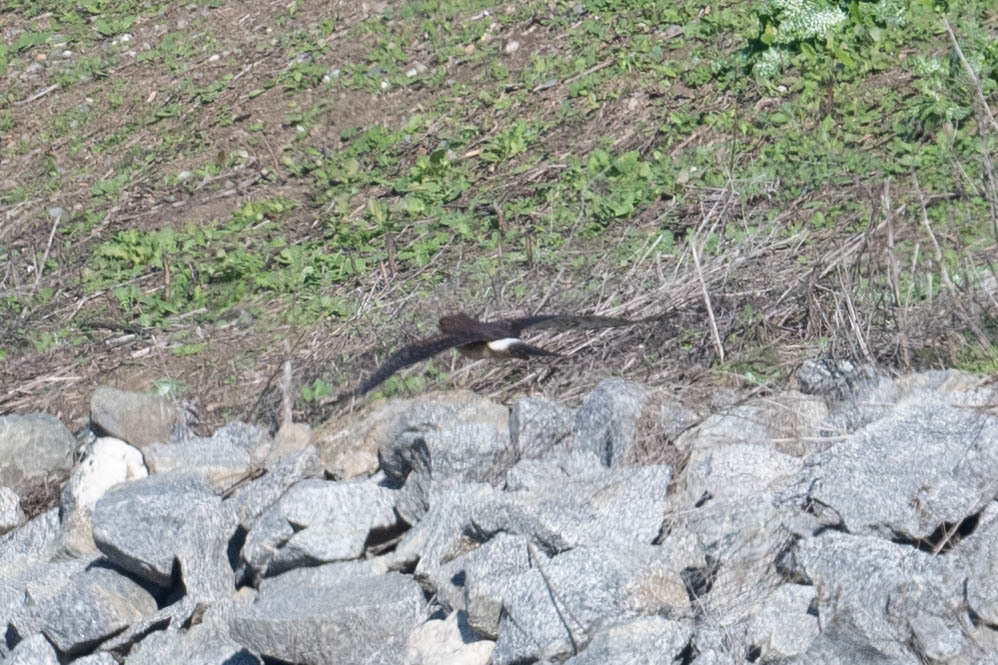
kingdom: Animalia
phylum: Chordata
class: Aves
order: Accipitriformes
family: Accipitridae
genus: Circus
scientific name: Circus cyaneus
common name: Hen harrier
